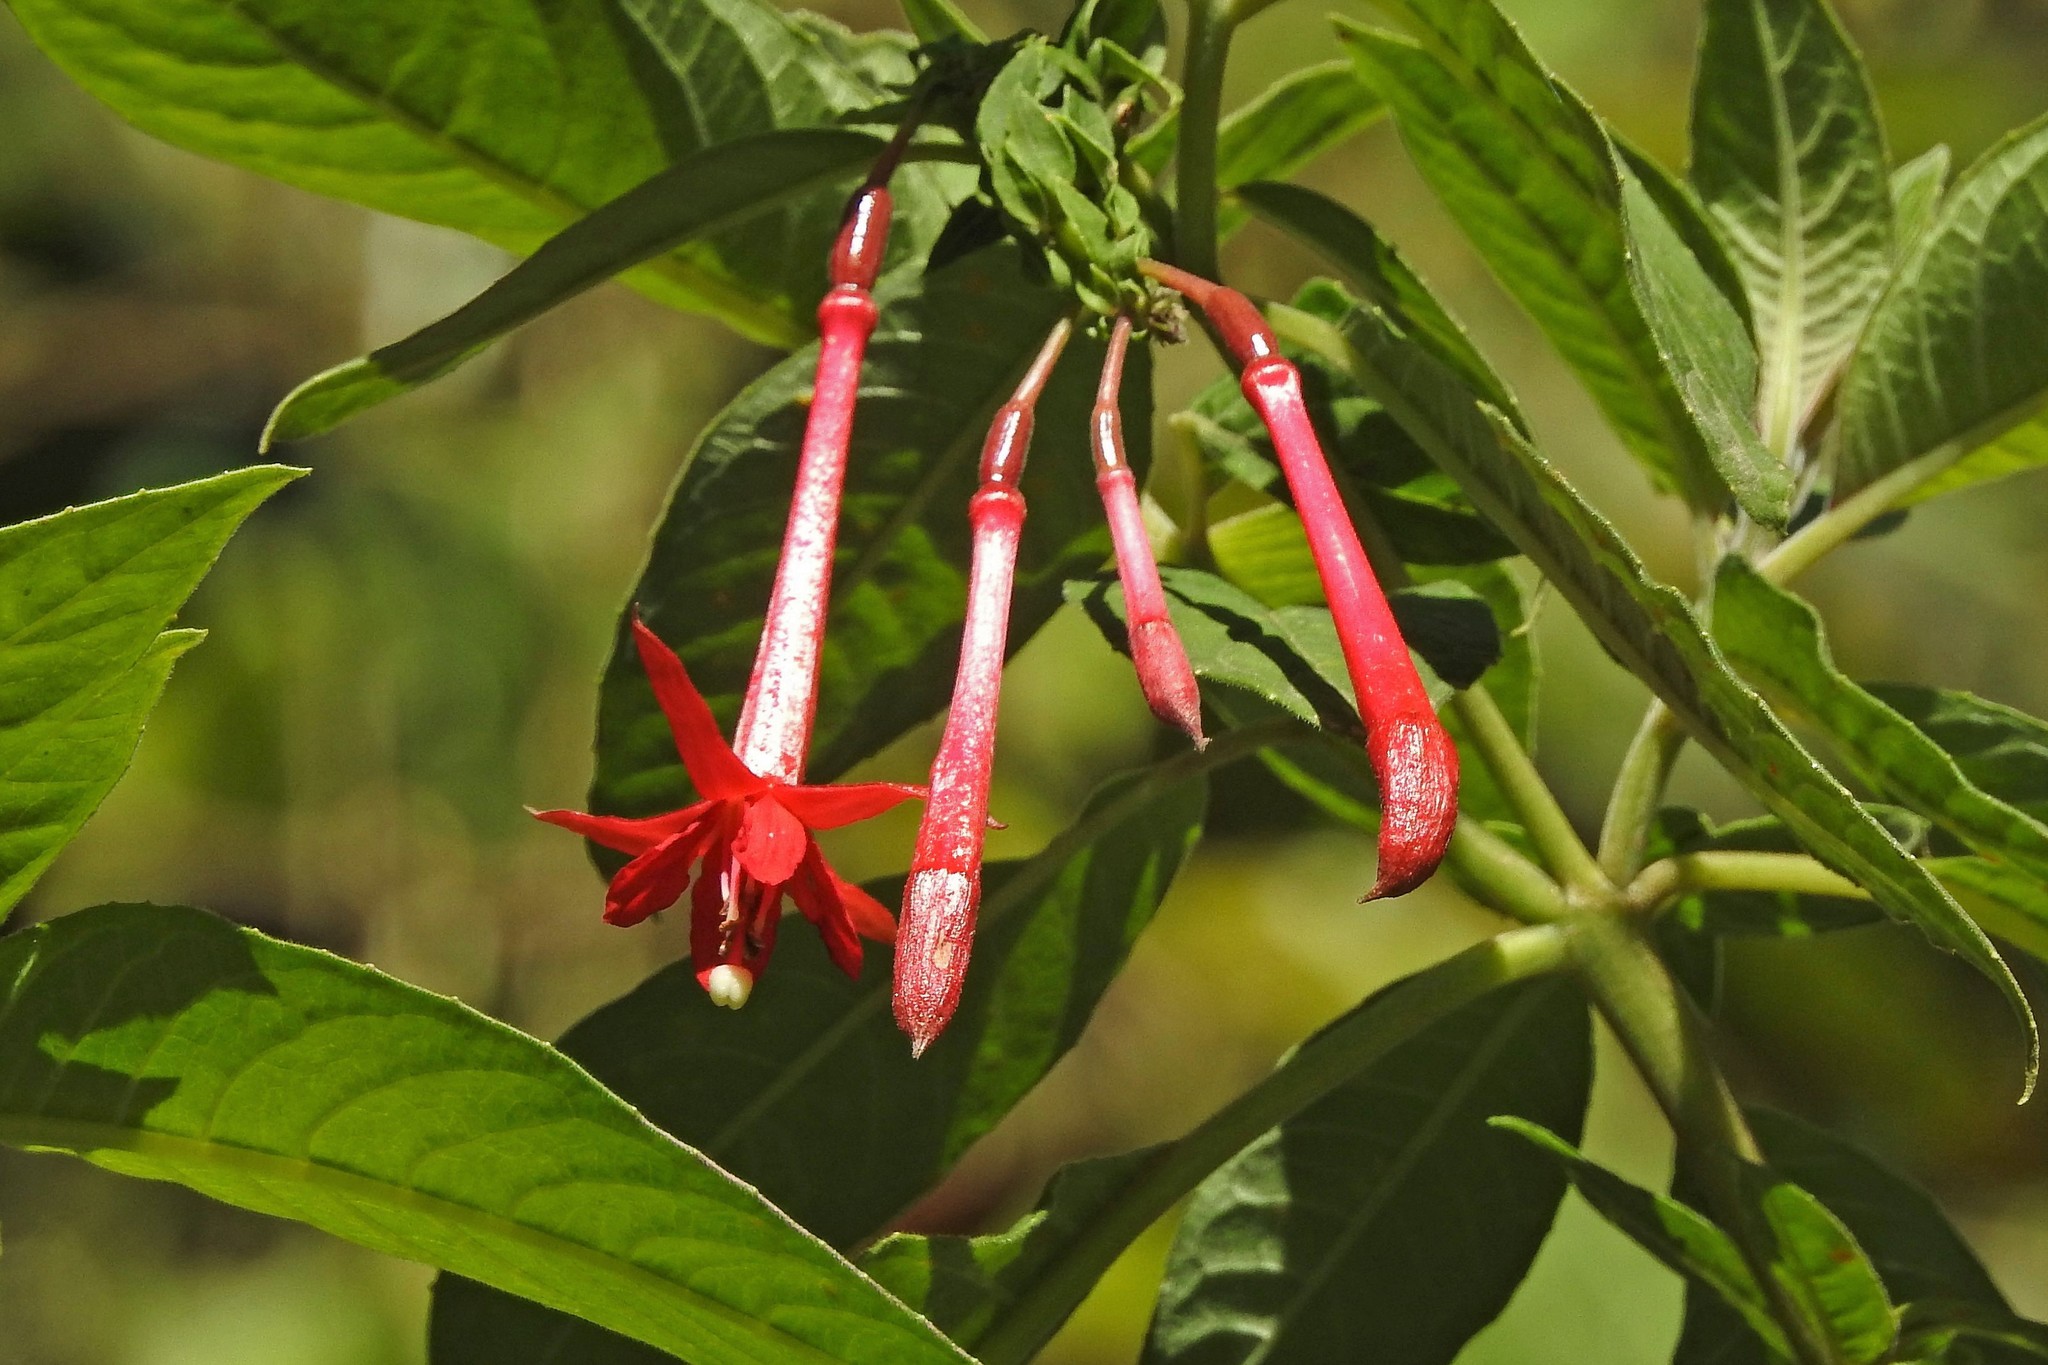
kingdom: Plantae
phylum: Tracheophyta
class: Magnoliopsida
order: Myrtales
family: Onagraceae
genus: Fuchsia
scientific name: Fuchsia boliviana
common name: Bolivian fuchsia
